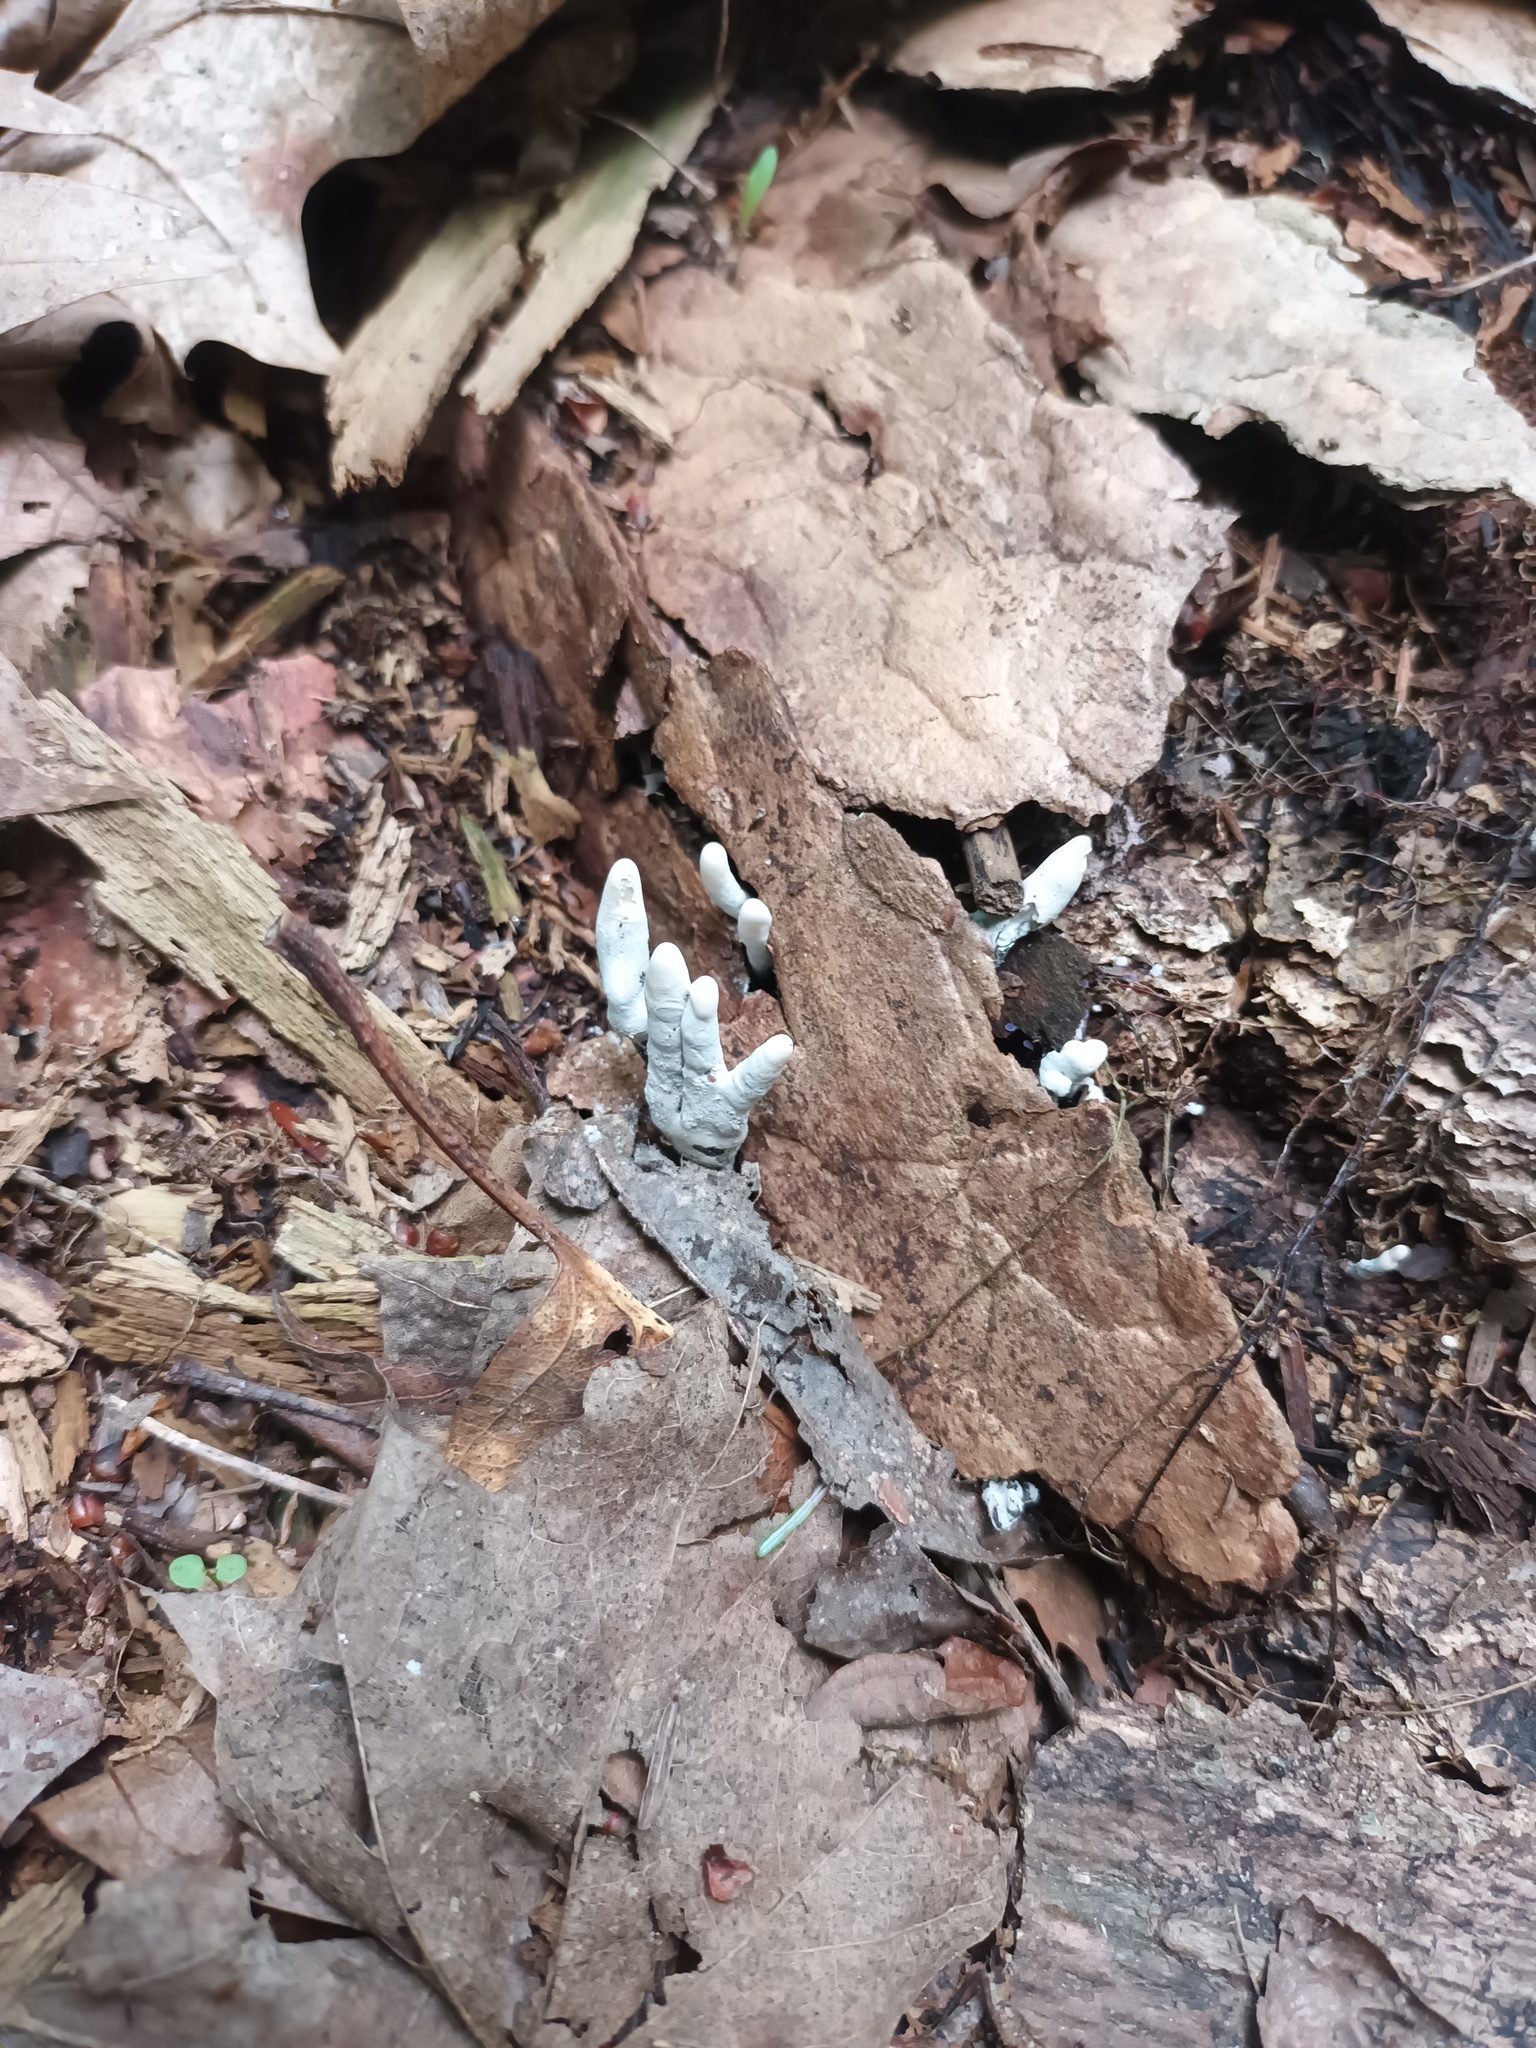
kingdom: Fungi
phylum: Ascomycota
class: Sordariomycetes
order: Xylariales
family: Xylariaceae
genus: Xylaria
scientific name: Xylaria polymorpha
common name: Dead man's fingers
